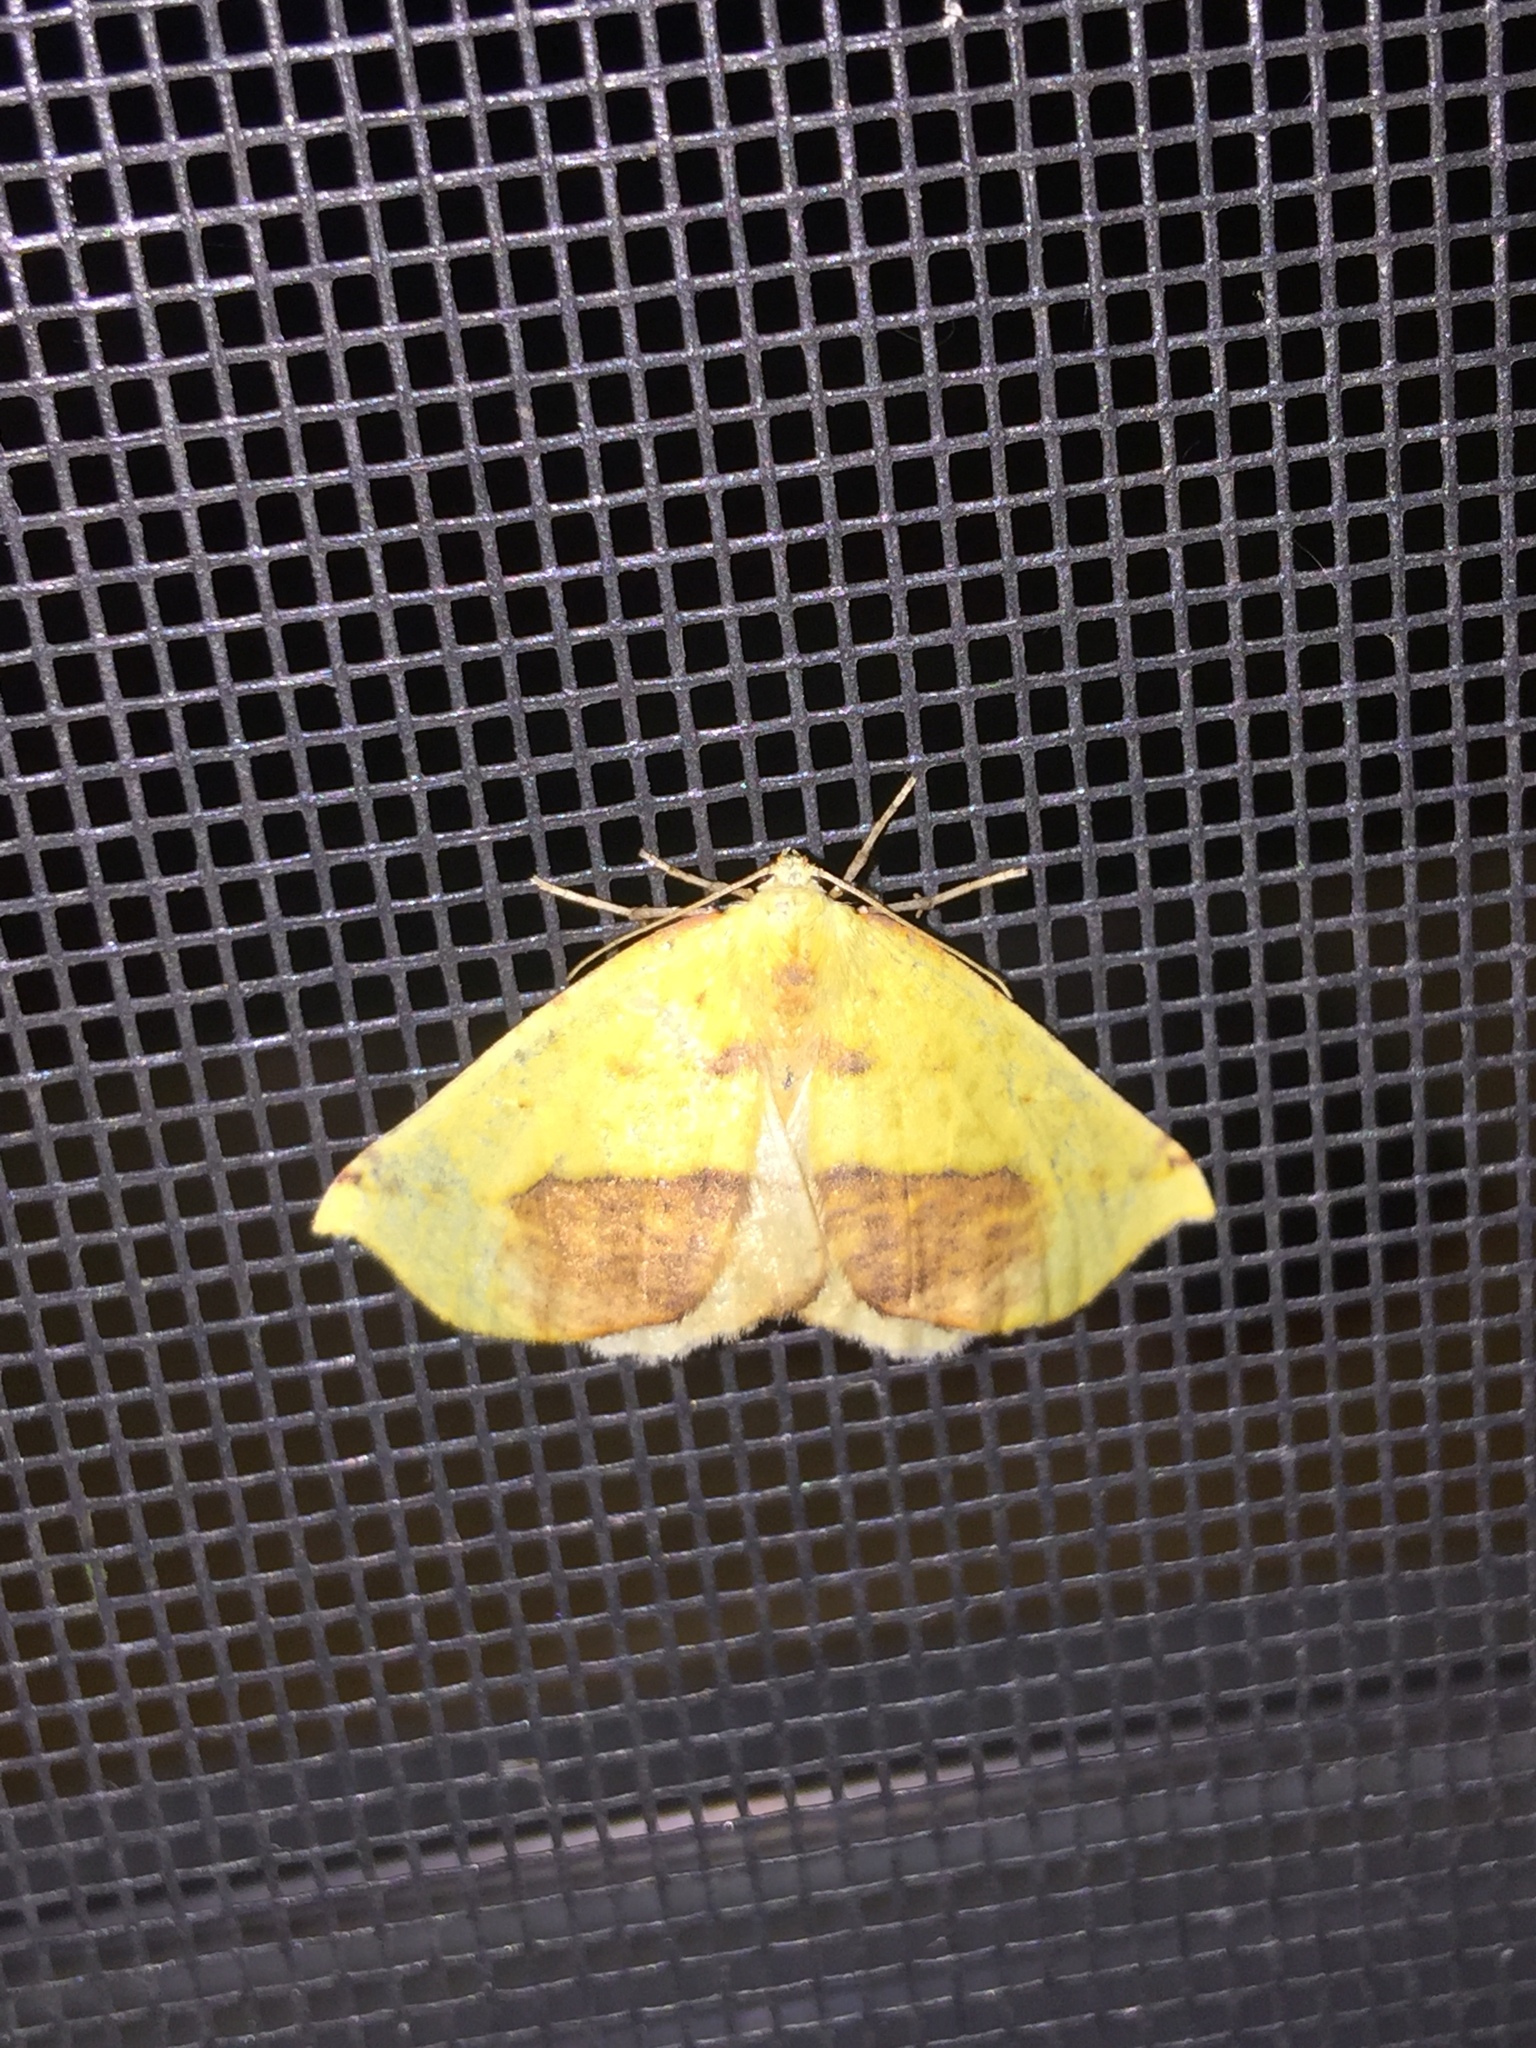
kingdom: Animalia
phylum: Arthropoda
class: Insecta
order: Lepidoptera
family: Geometridae
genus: Sicya
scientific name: Sicya macularia
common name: Sharp-lined yellow
